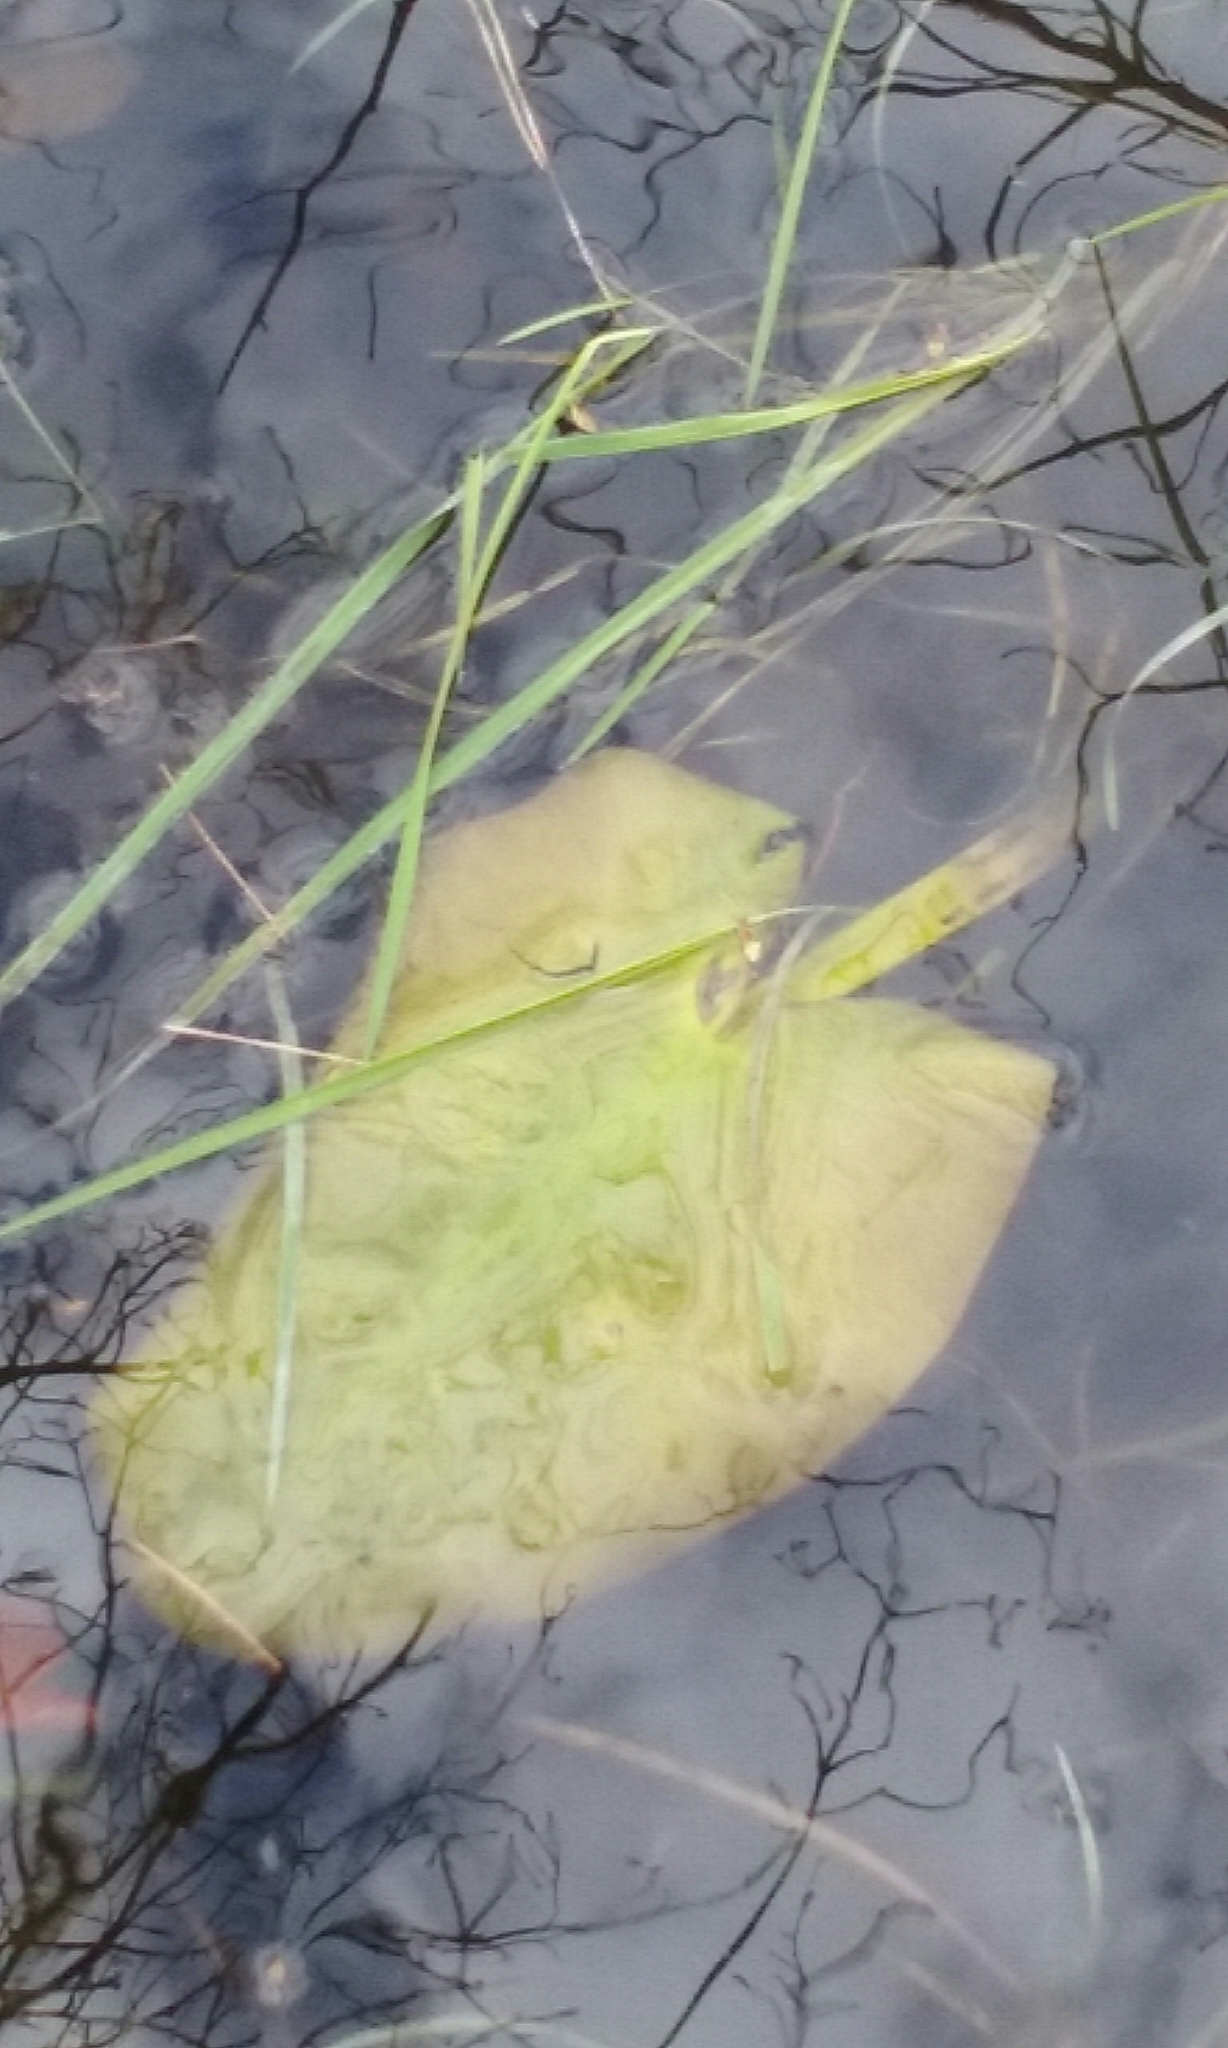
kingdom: Plantae
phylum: Tracheophyta
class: Magnoliopsida
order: Nymphaeales
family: Nymphaeaceae
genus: Nuphar
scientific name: Nuphar variegata
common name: Beaver-root
